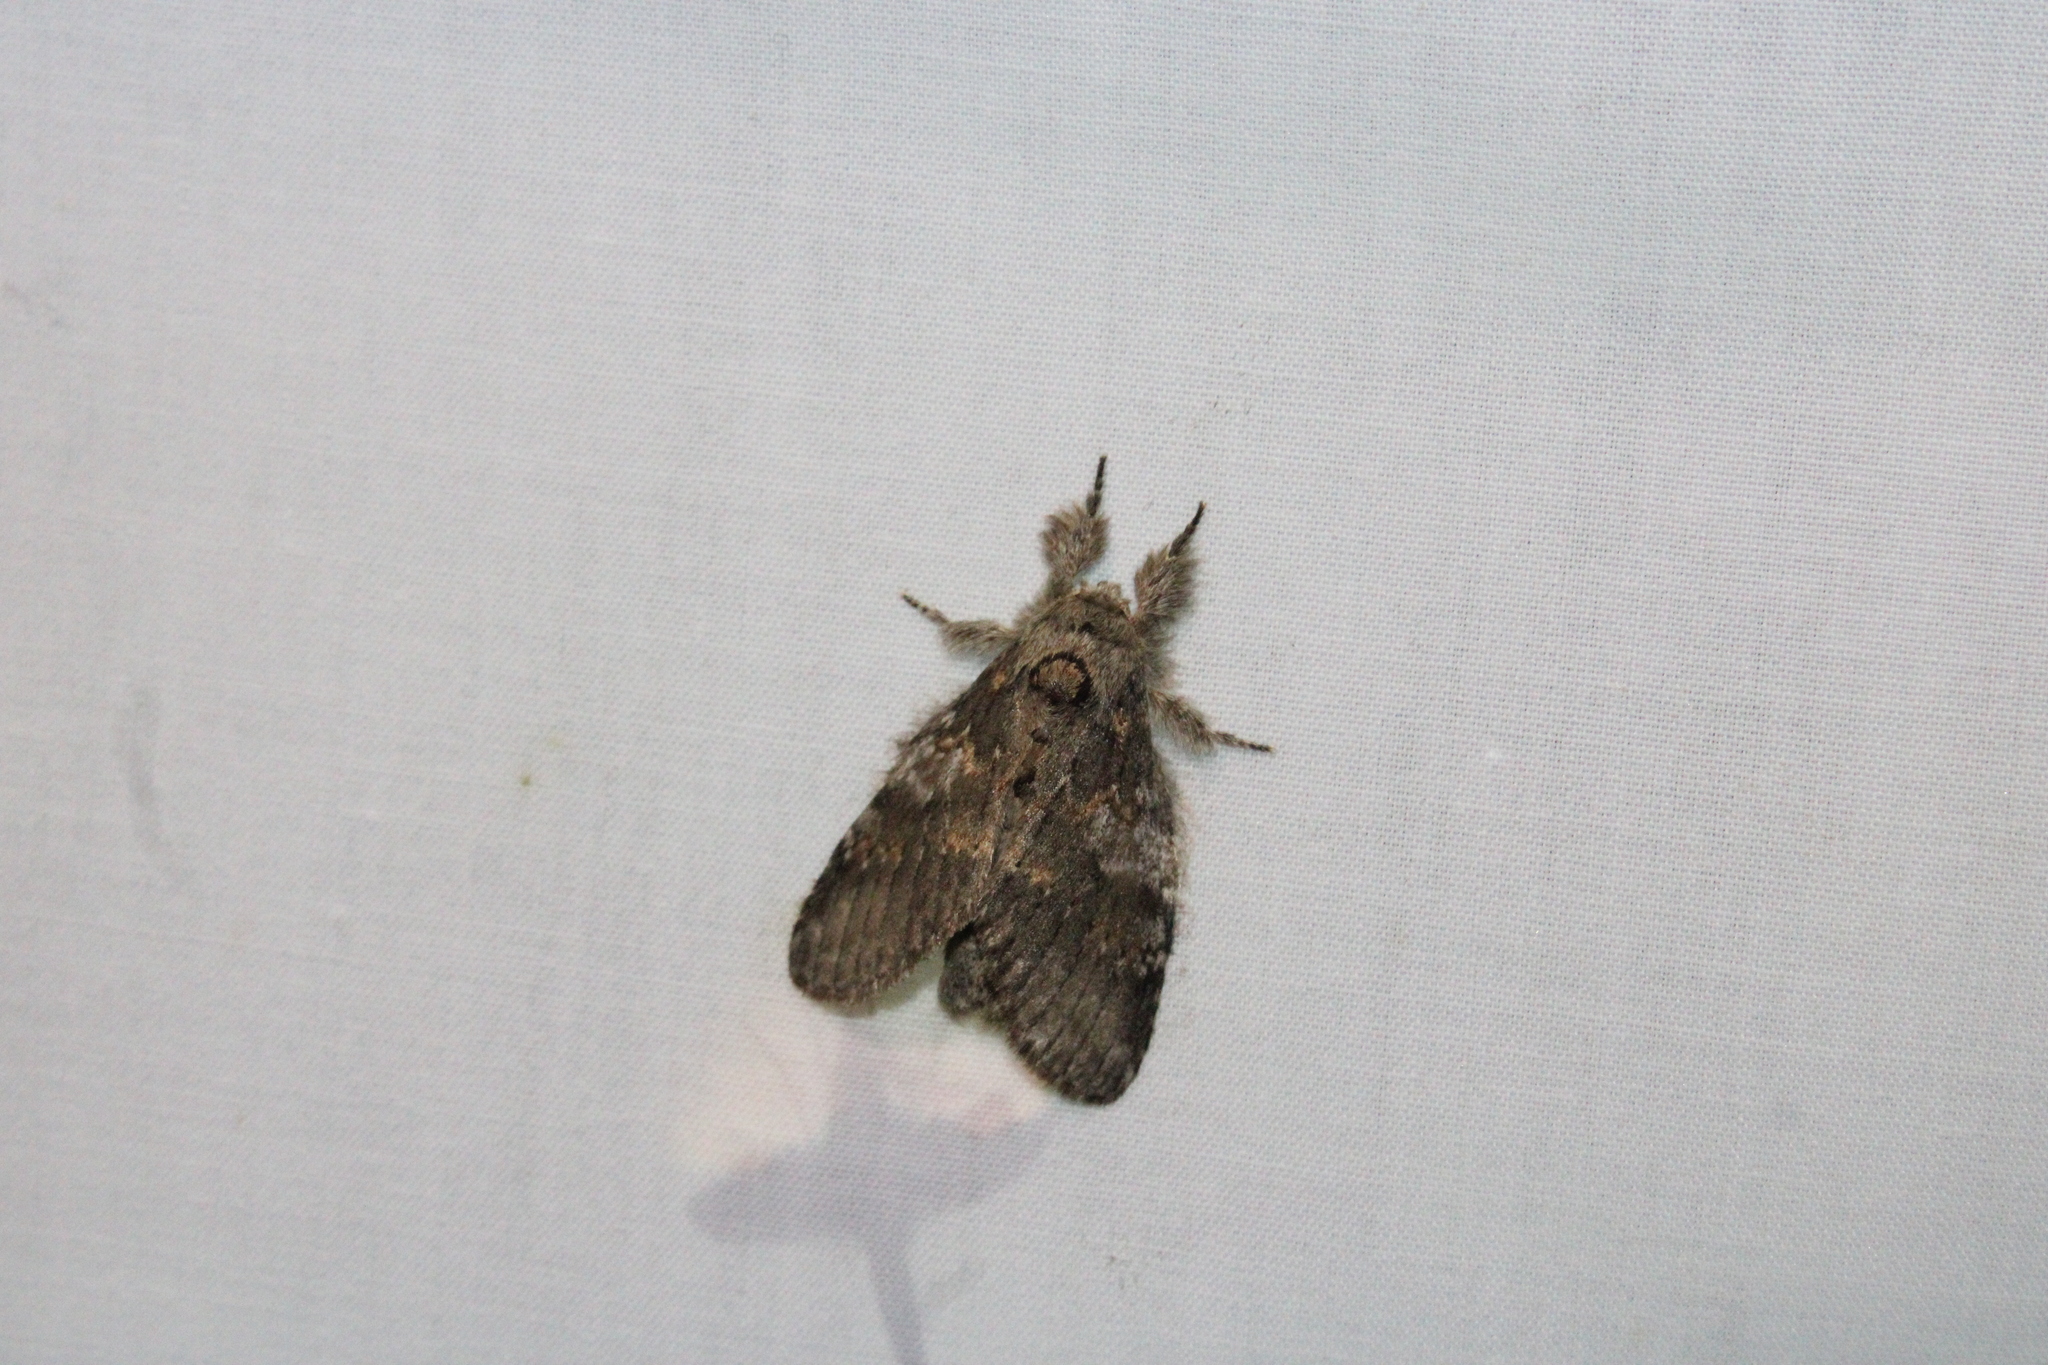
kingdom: Animalia
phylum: Arthropoda
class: Insecta
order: Lepidoptera
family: Notodontidae
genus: Peridea
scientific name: Peridea angulosa
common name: Angulose prominent
